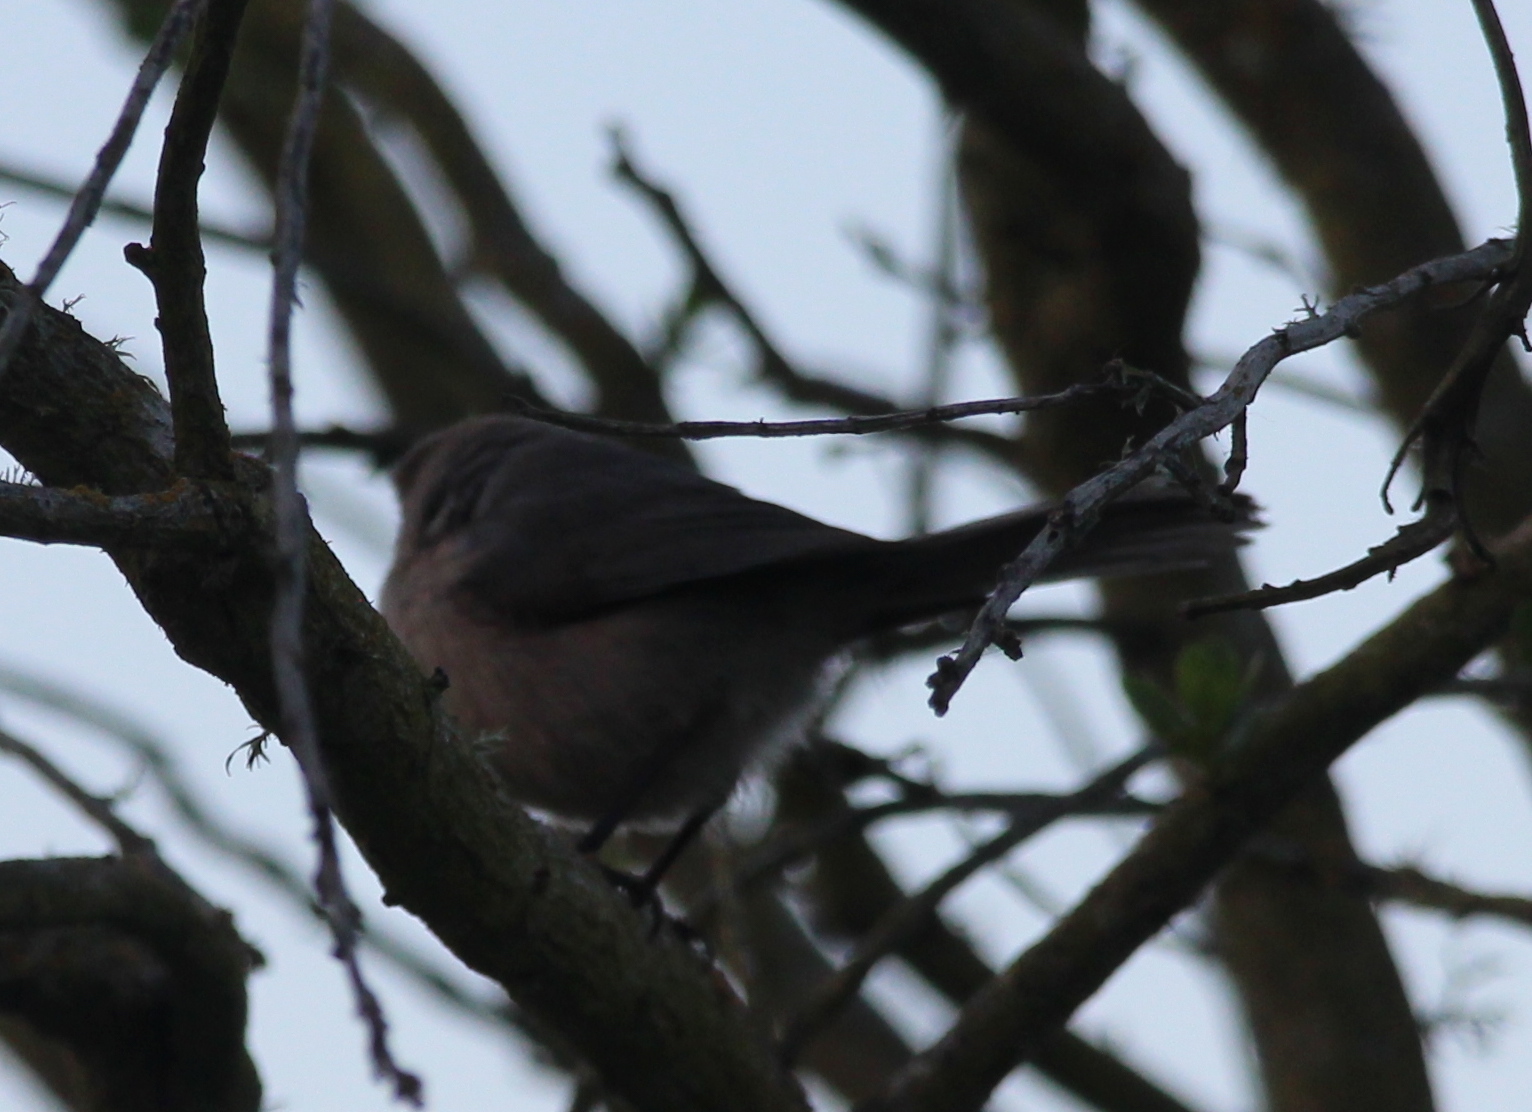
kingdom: Animalia
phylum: Chordata
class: Aves
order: Passeriformes
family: Aegithalidae
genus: Psaltriparus
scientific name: Psaltriparus minimus
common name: American bushtit
